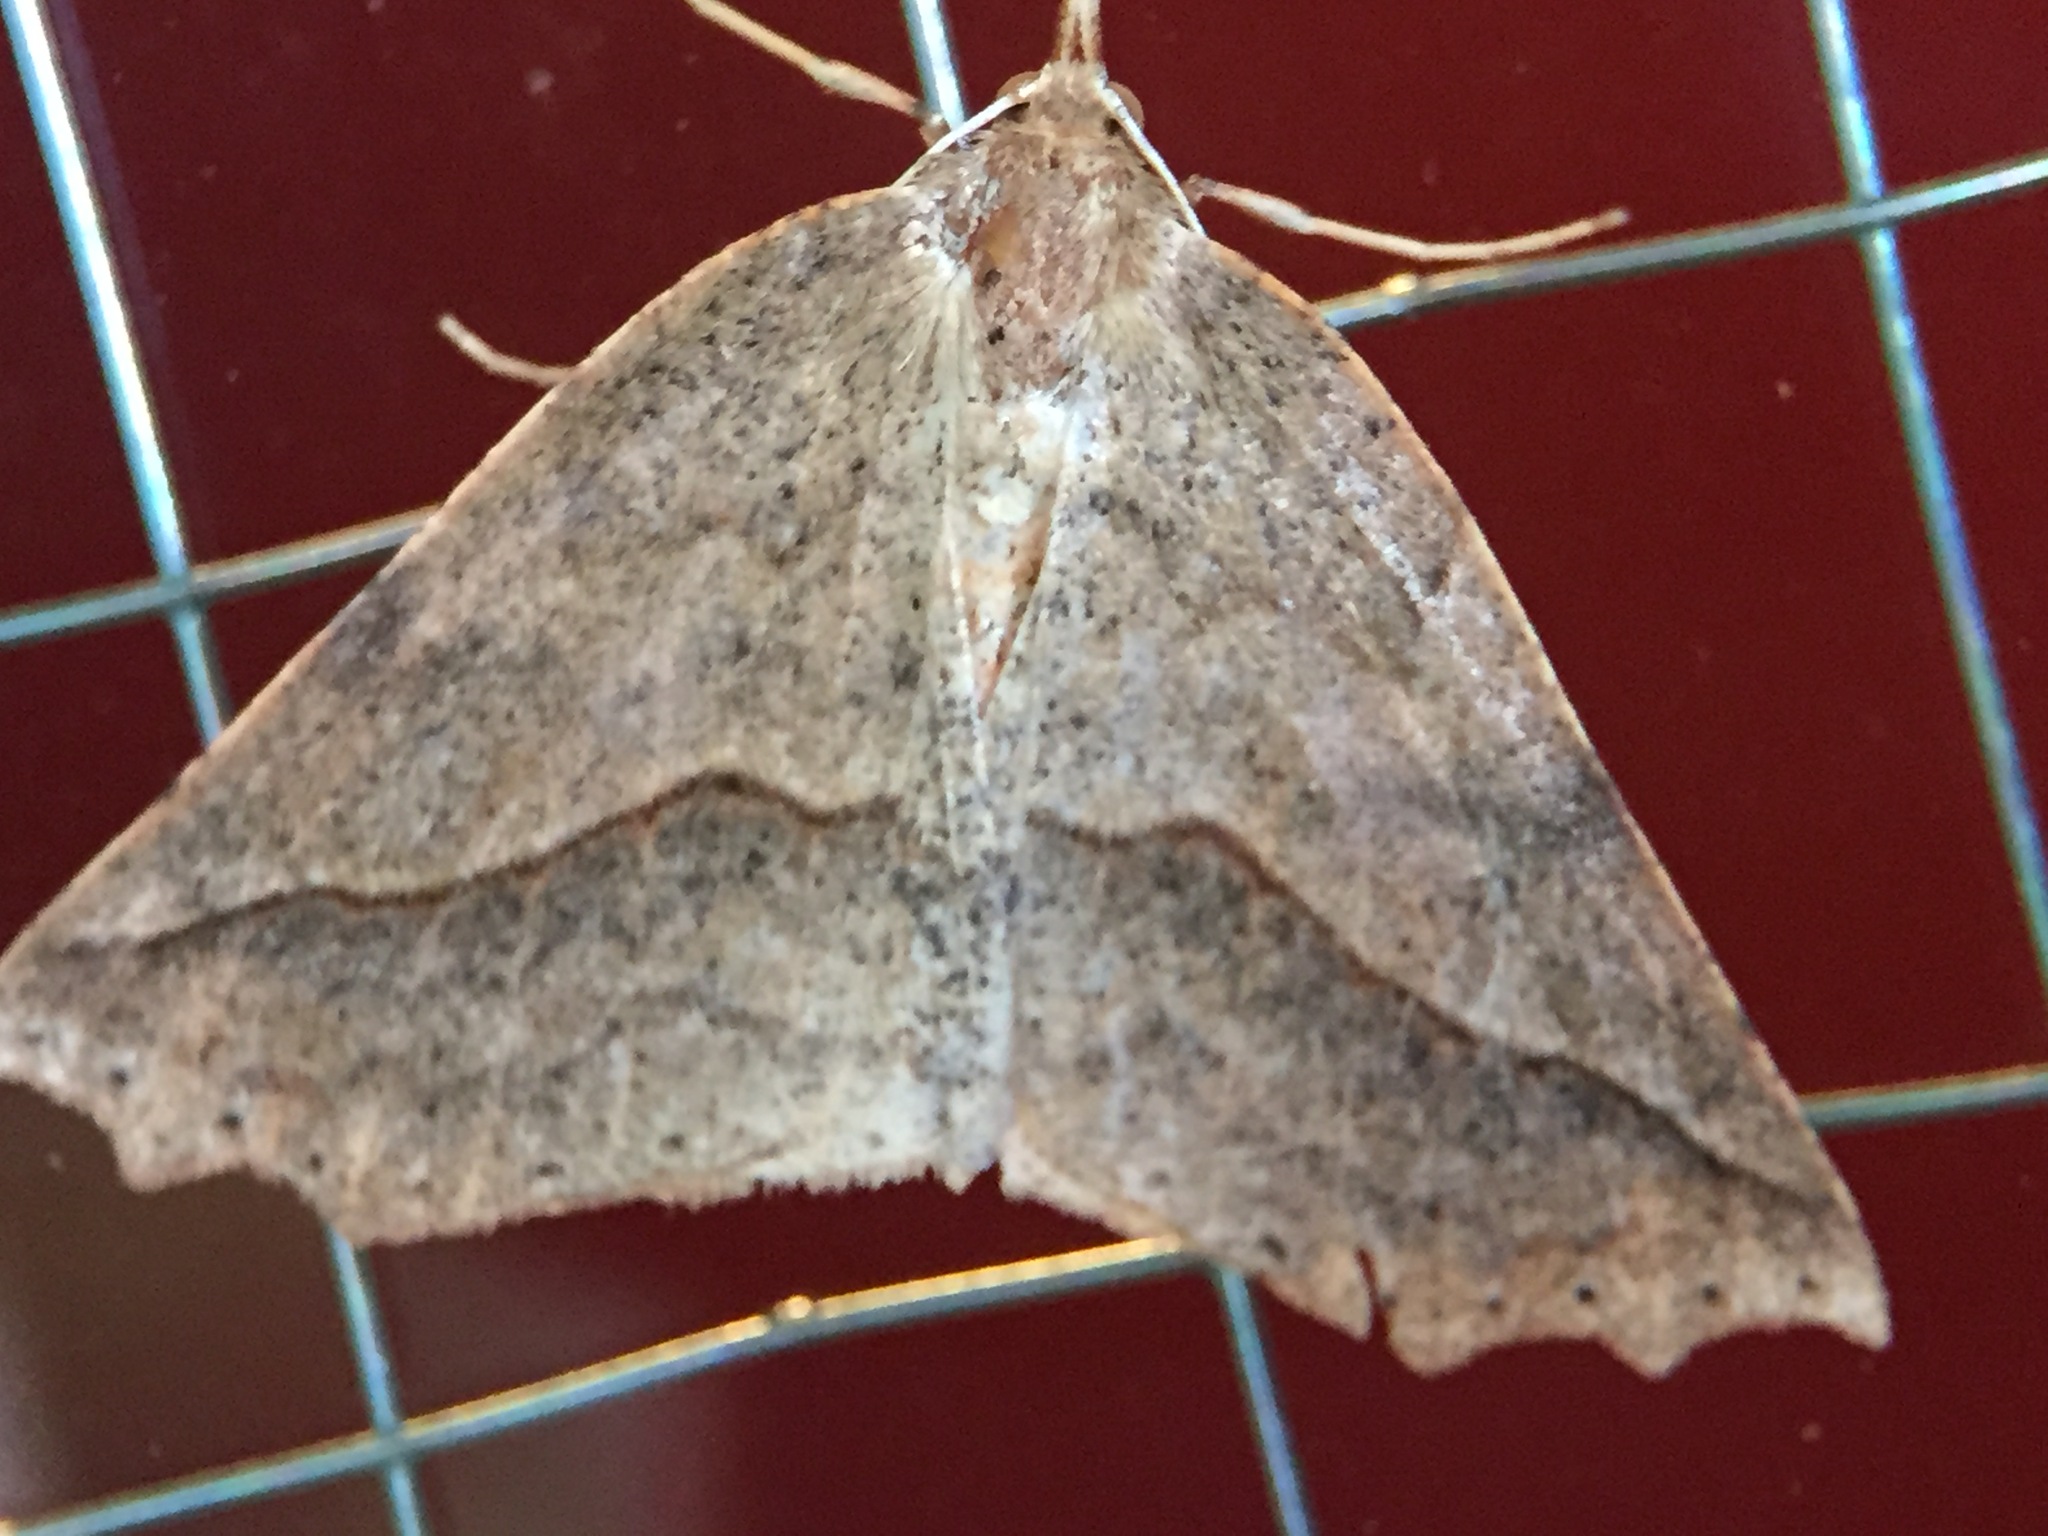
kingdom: Animalia
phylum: Arthropoda
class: Insecta
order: Lepidoptera
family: Geometridae
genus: Ischalis
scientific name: Ischalis variabilis
